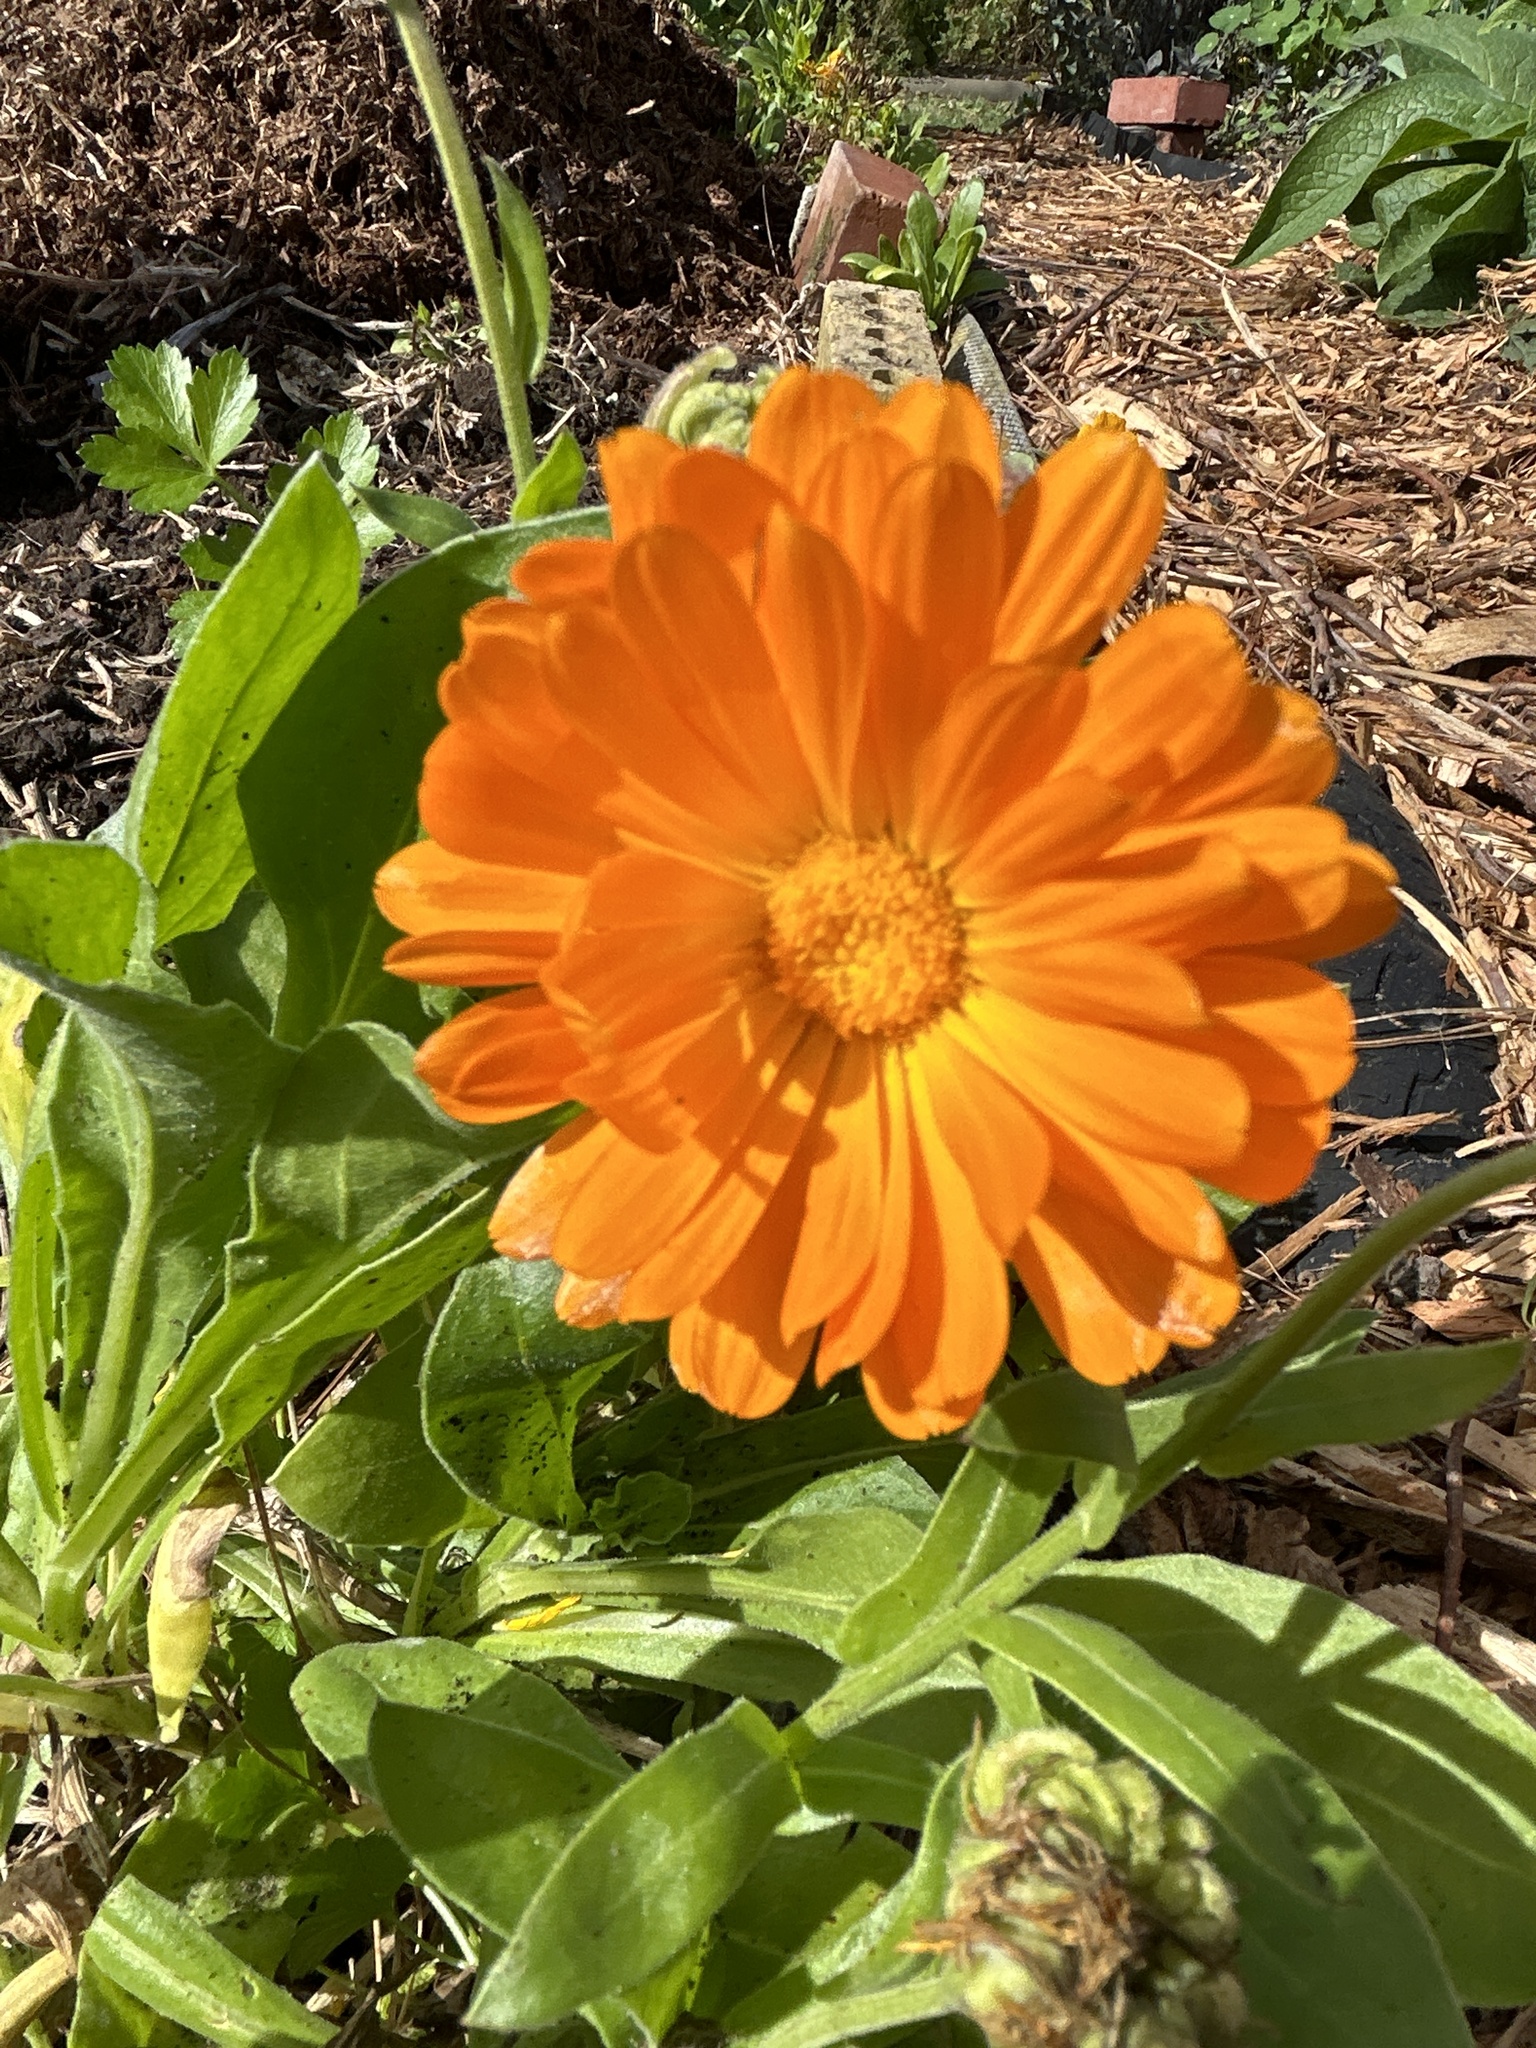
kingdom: Plantae
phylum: Tracheophyta
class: Magnoliopsida
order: Asterales
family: Asteraceae
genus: Calendula
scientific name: Calendula officinalis
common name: Pot marigold
